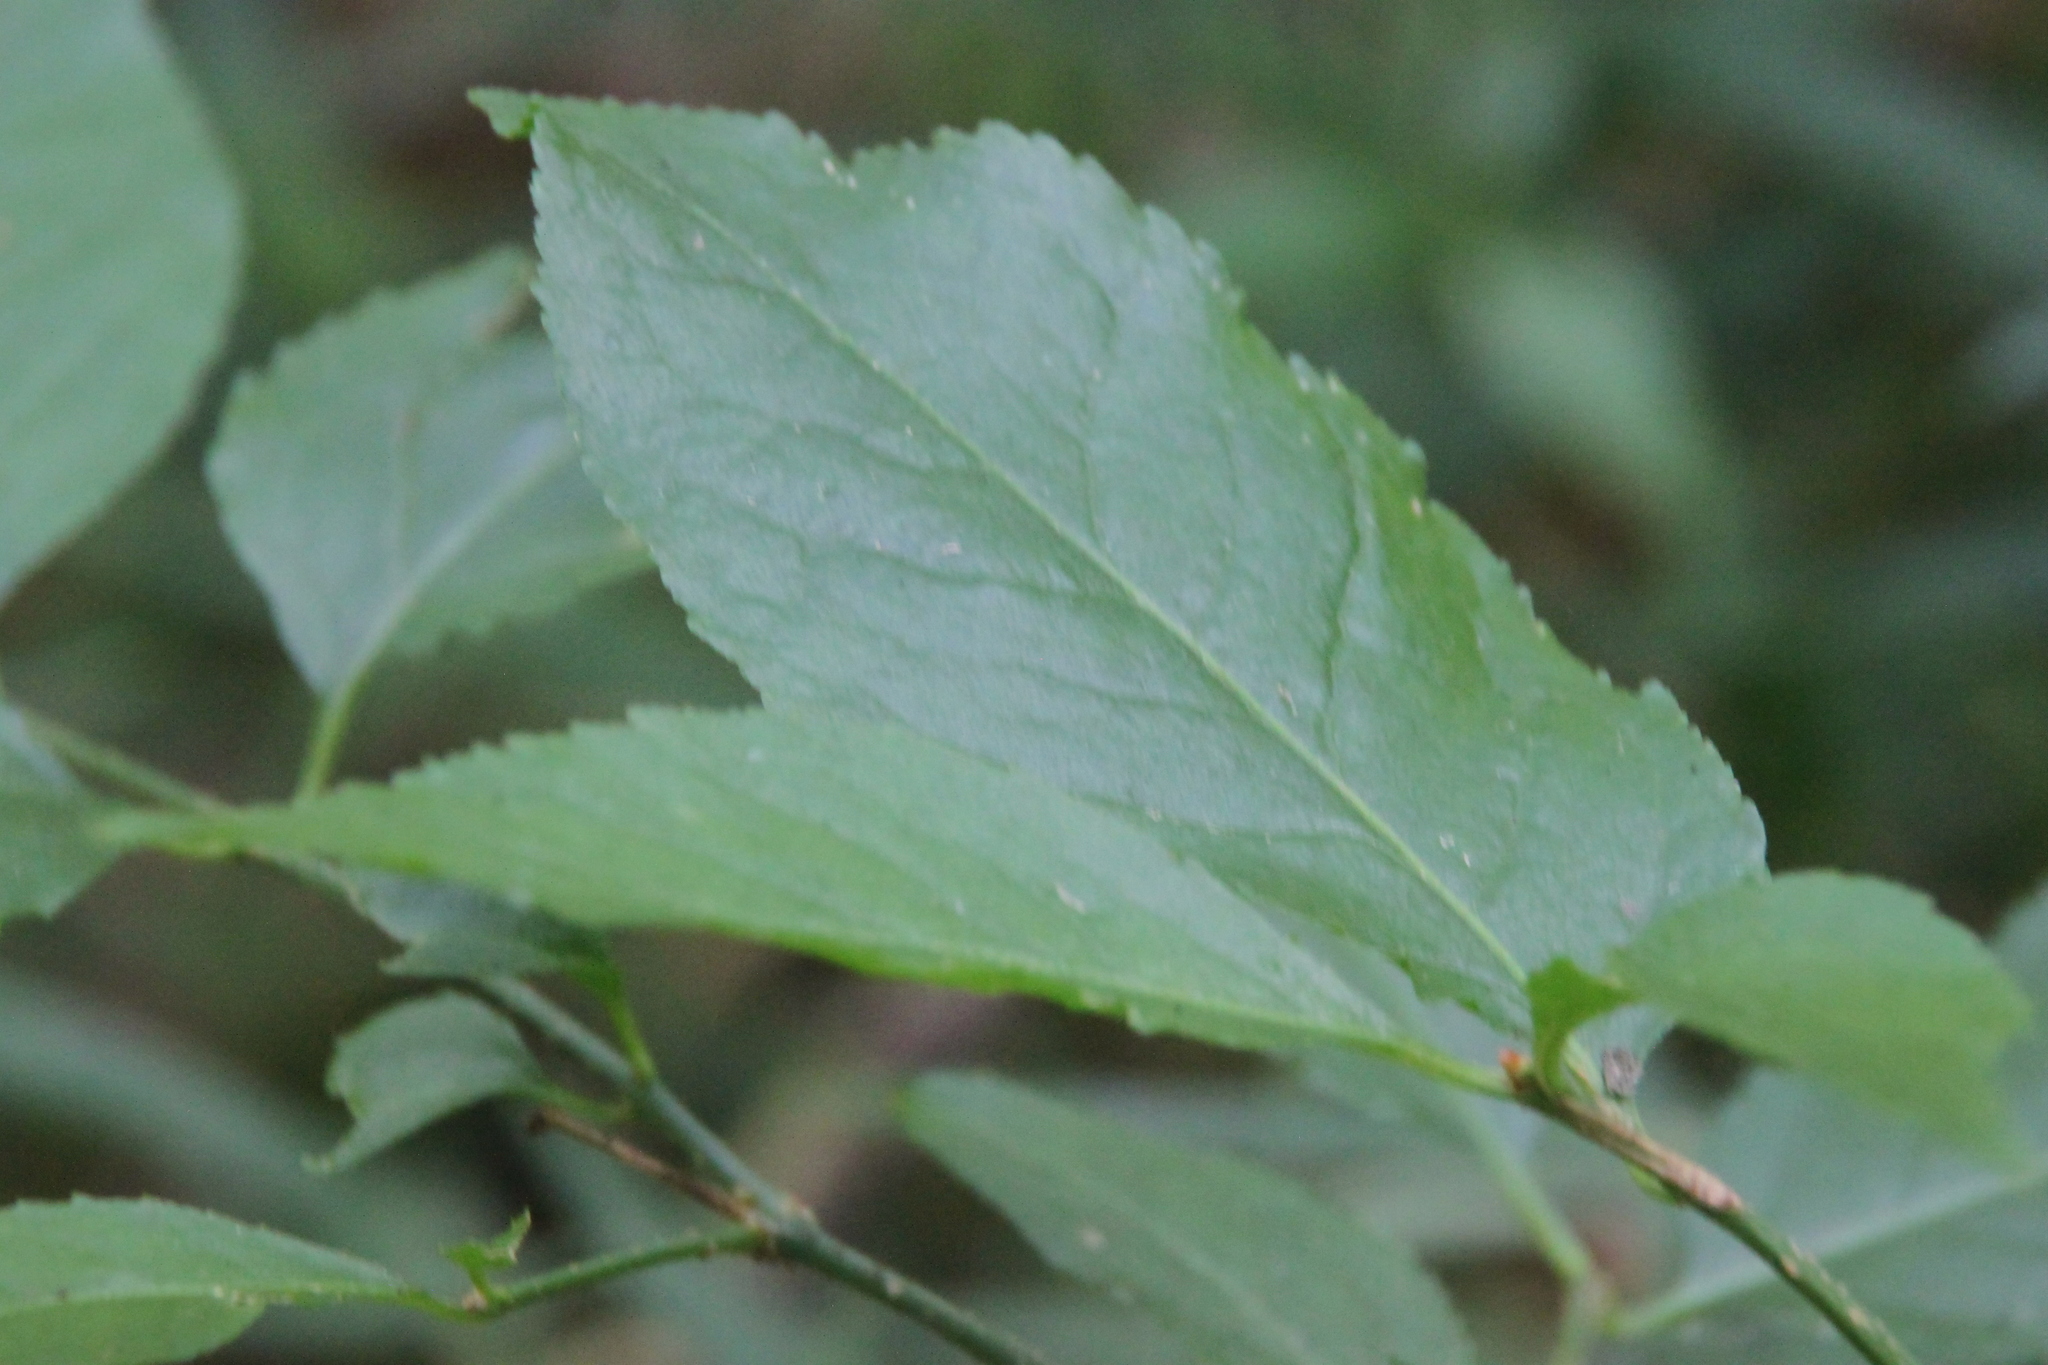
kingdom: Plantae
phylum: Tracheophyta
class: Magnoliopsida
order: Celastrales
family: Celastraceae
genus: Euonymus
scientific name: Euonymus verrucosus
